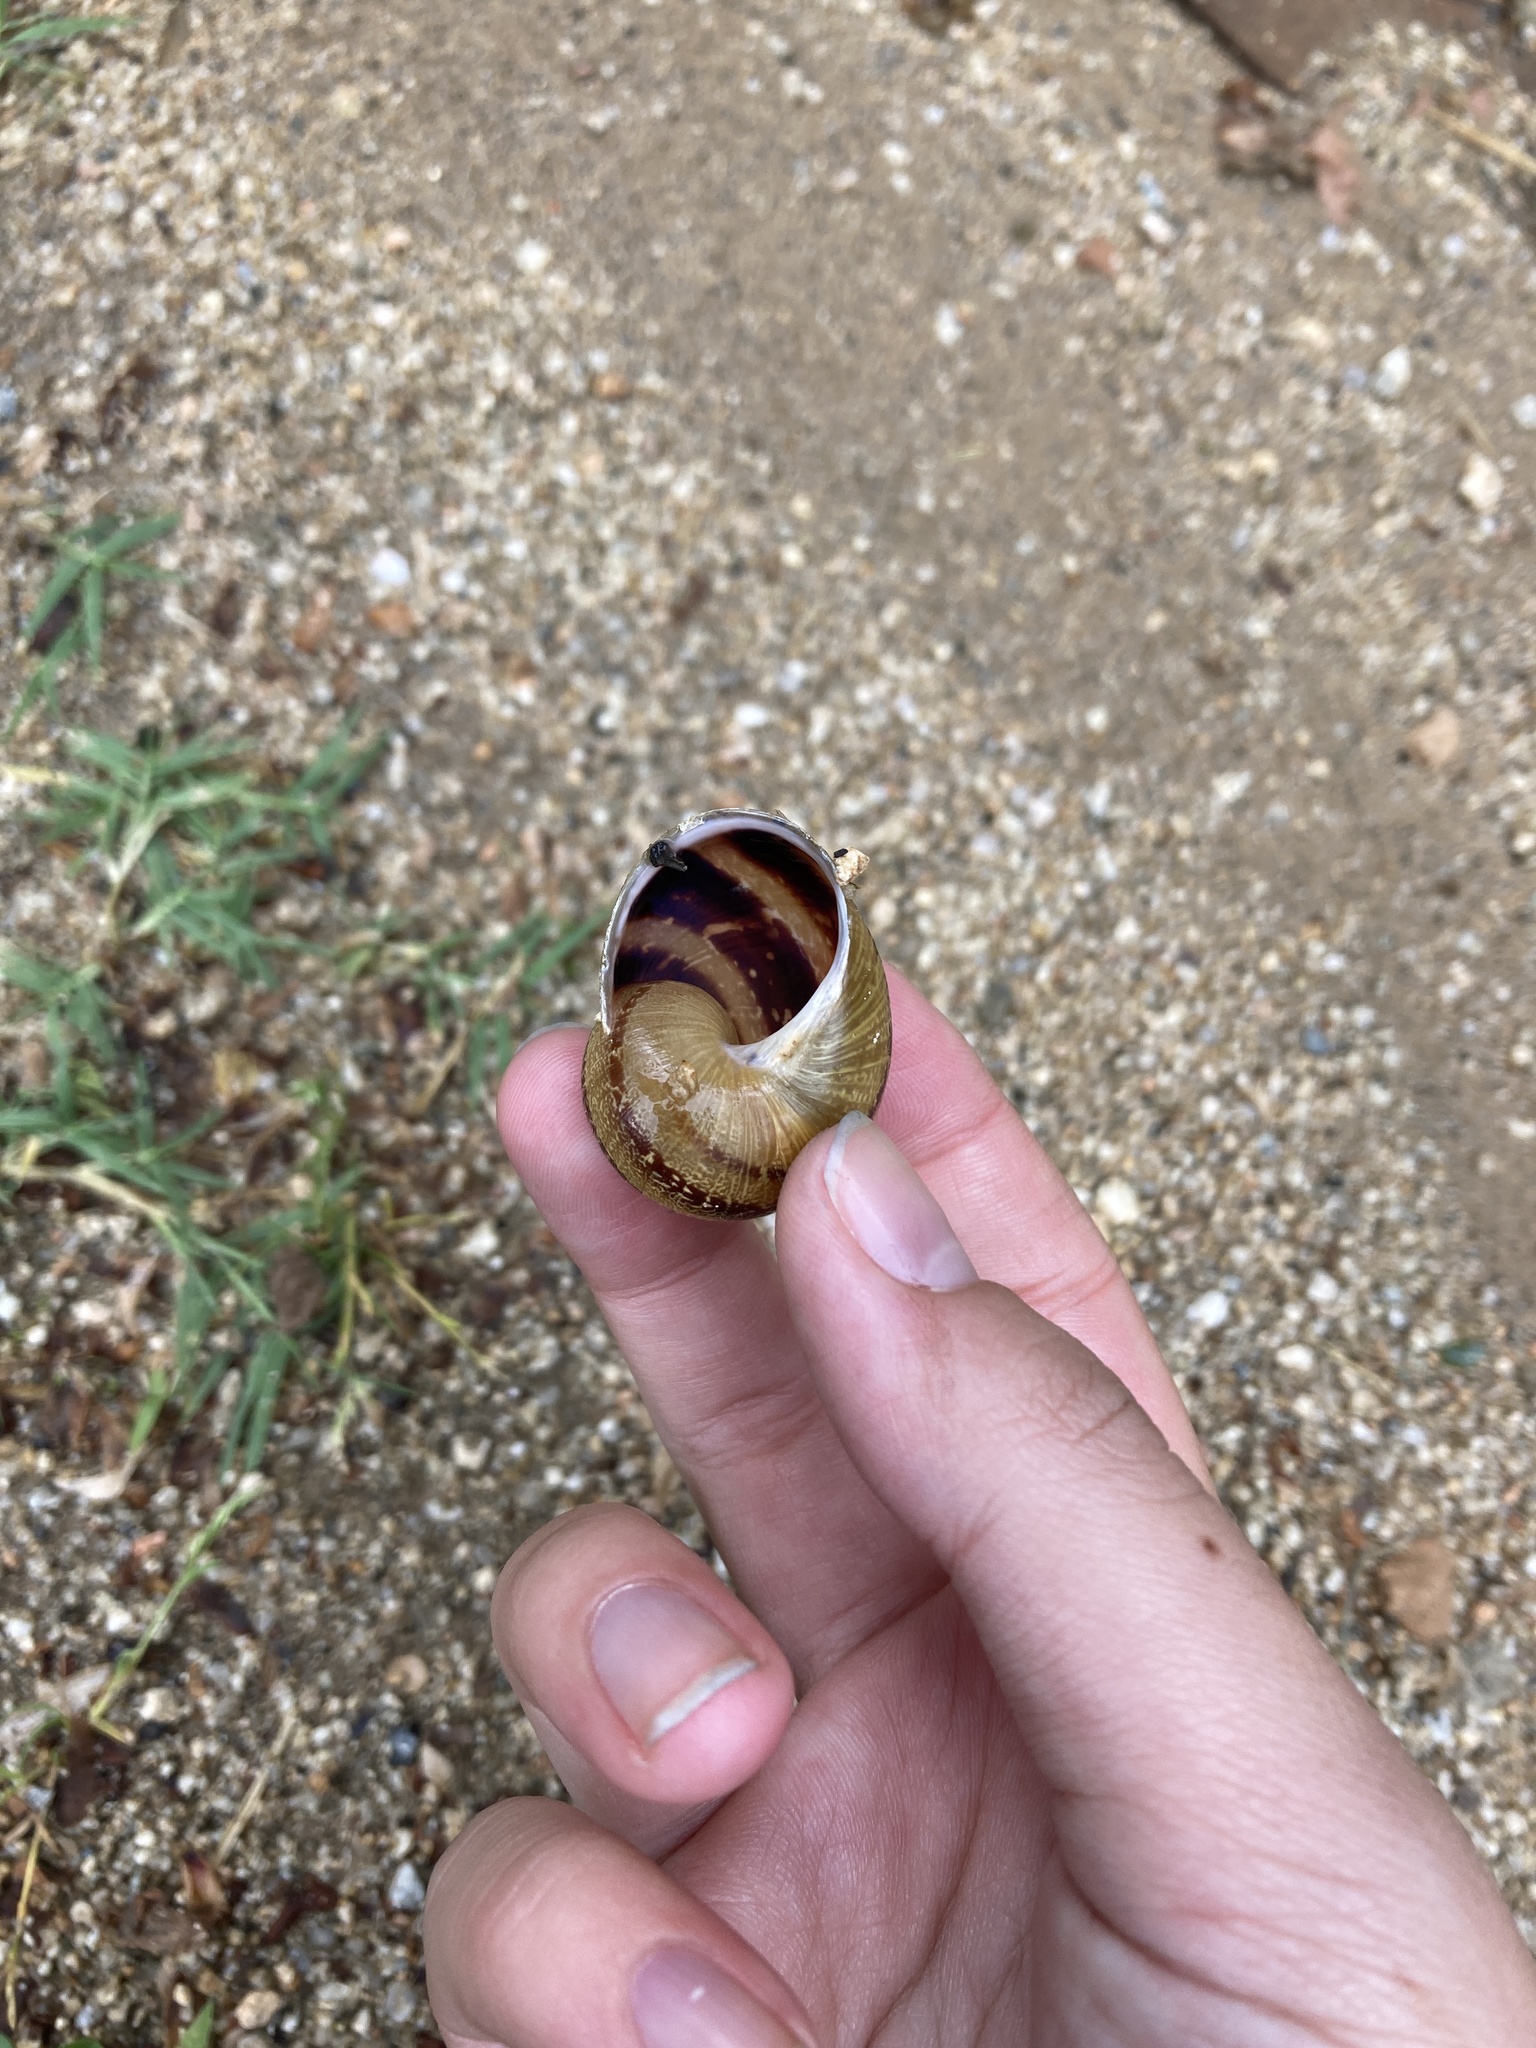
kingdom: Animalia
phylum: Mollusca
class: Gastropoda
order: Stylommatophora
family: Helicidae
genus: Cornu
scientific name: Cornu aspersum
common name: Brown garden snail
